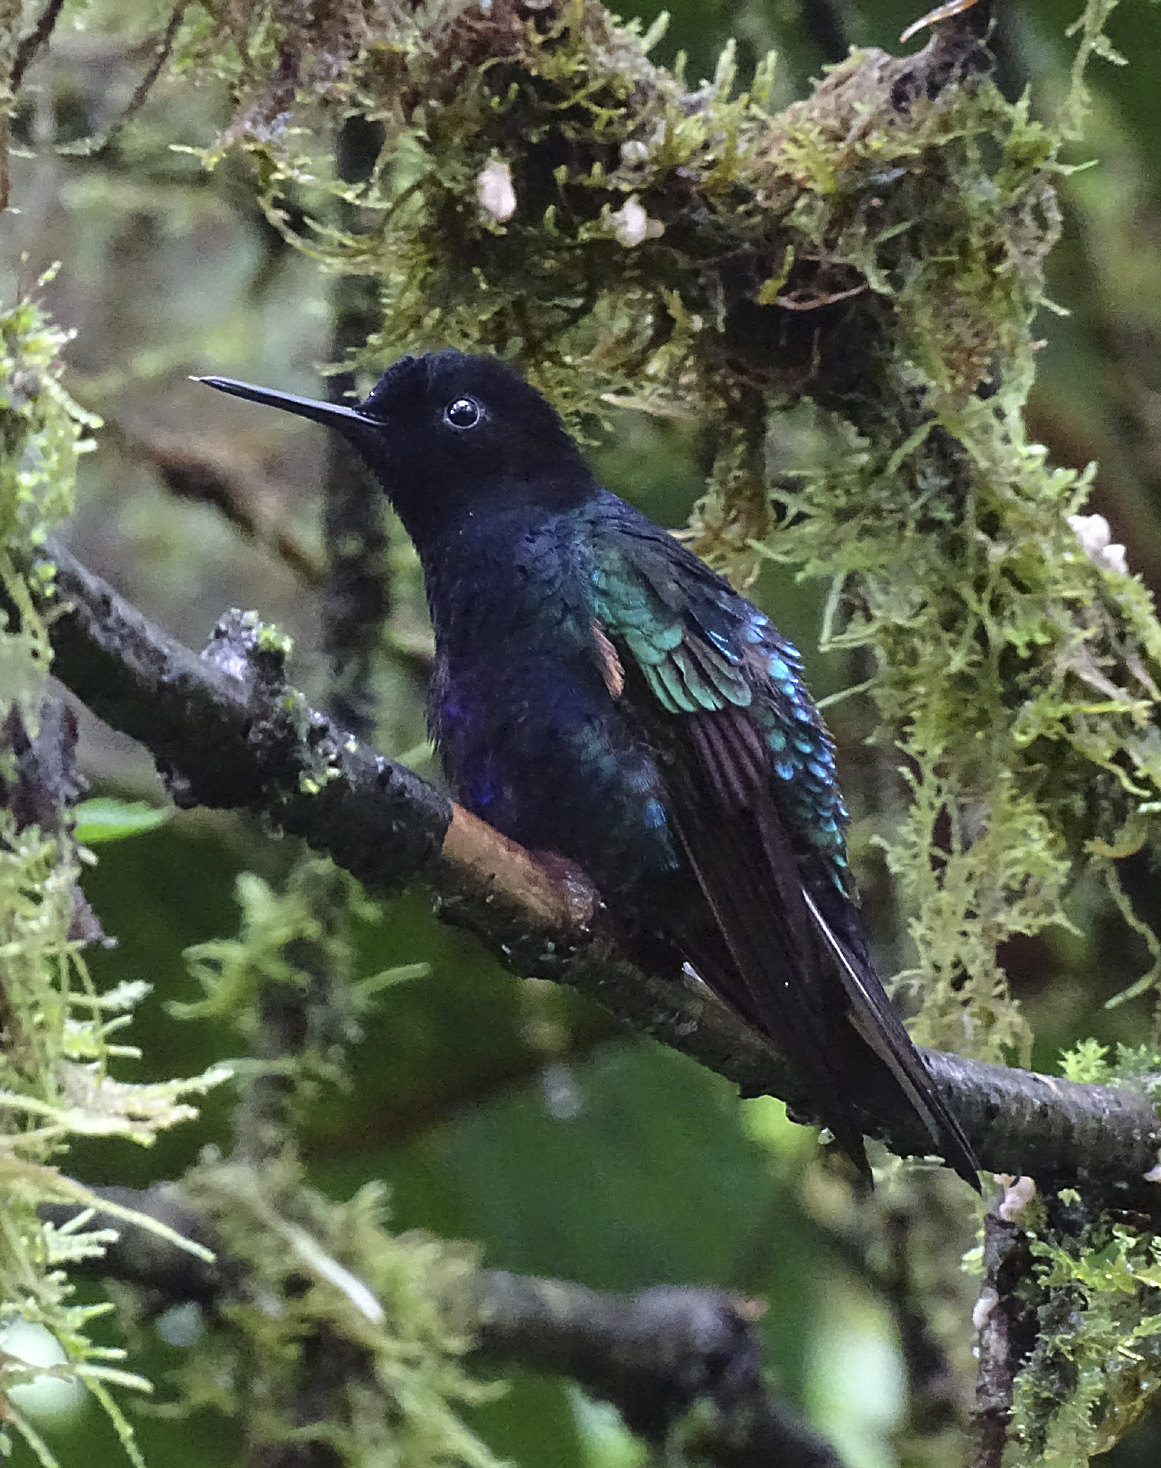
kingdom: Animalia
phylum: Chordata
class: Aves
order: Apodiformes
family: Trochilidae
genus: Boissonneaua
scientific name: Boissonneaua jardini
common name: Velvet-purple coronet
